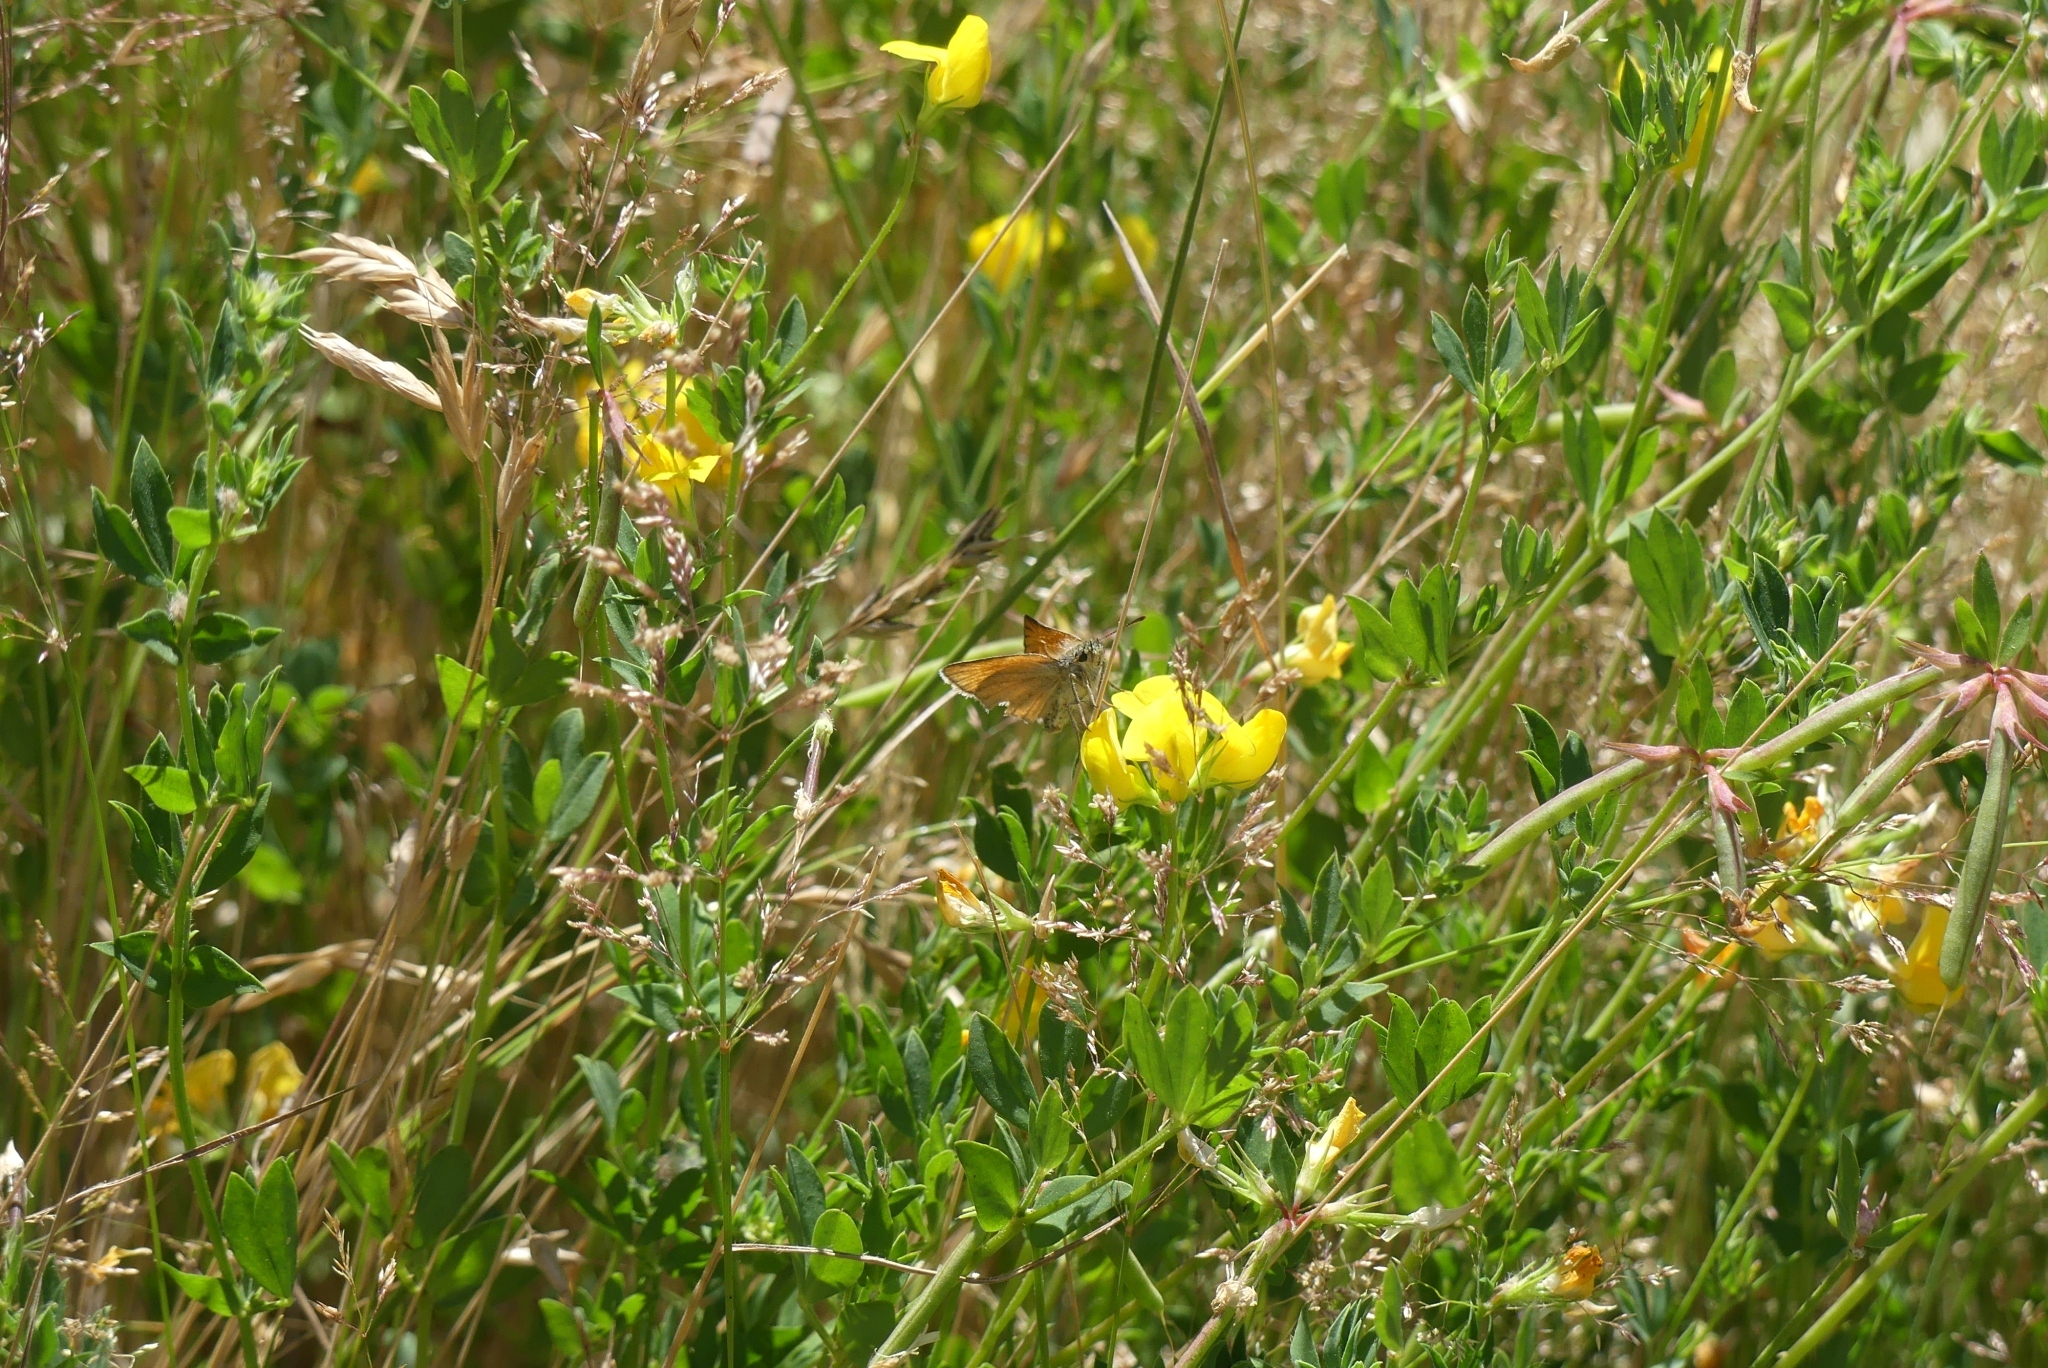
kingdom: Animalia
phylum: Arthropoda
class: Insecta
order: Lepidoptera
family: Hesperiidae
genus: Thymelicus
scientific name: Thymelicus lineola
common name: Essex skipper
